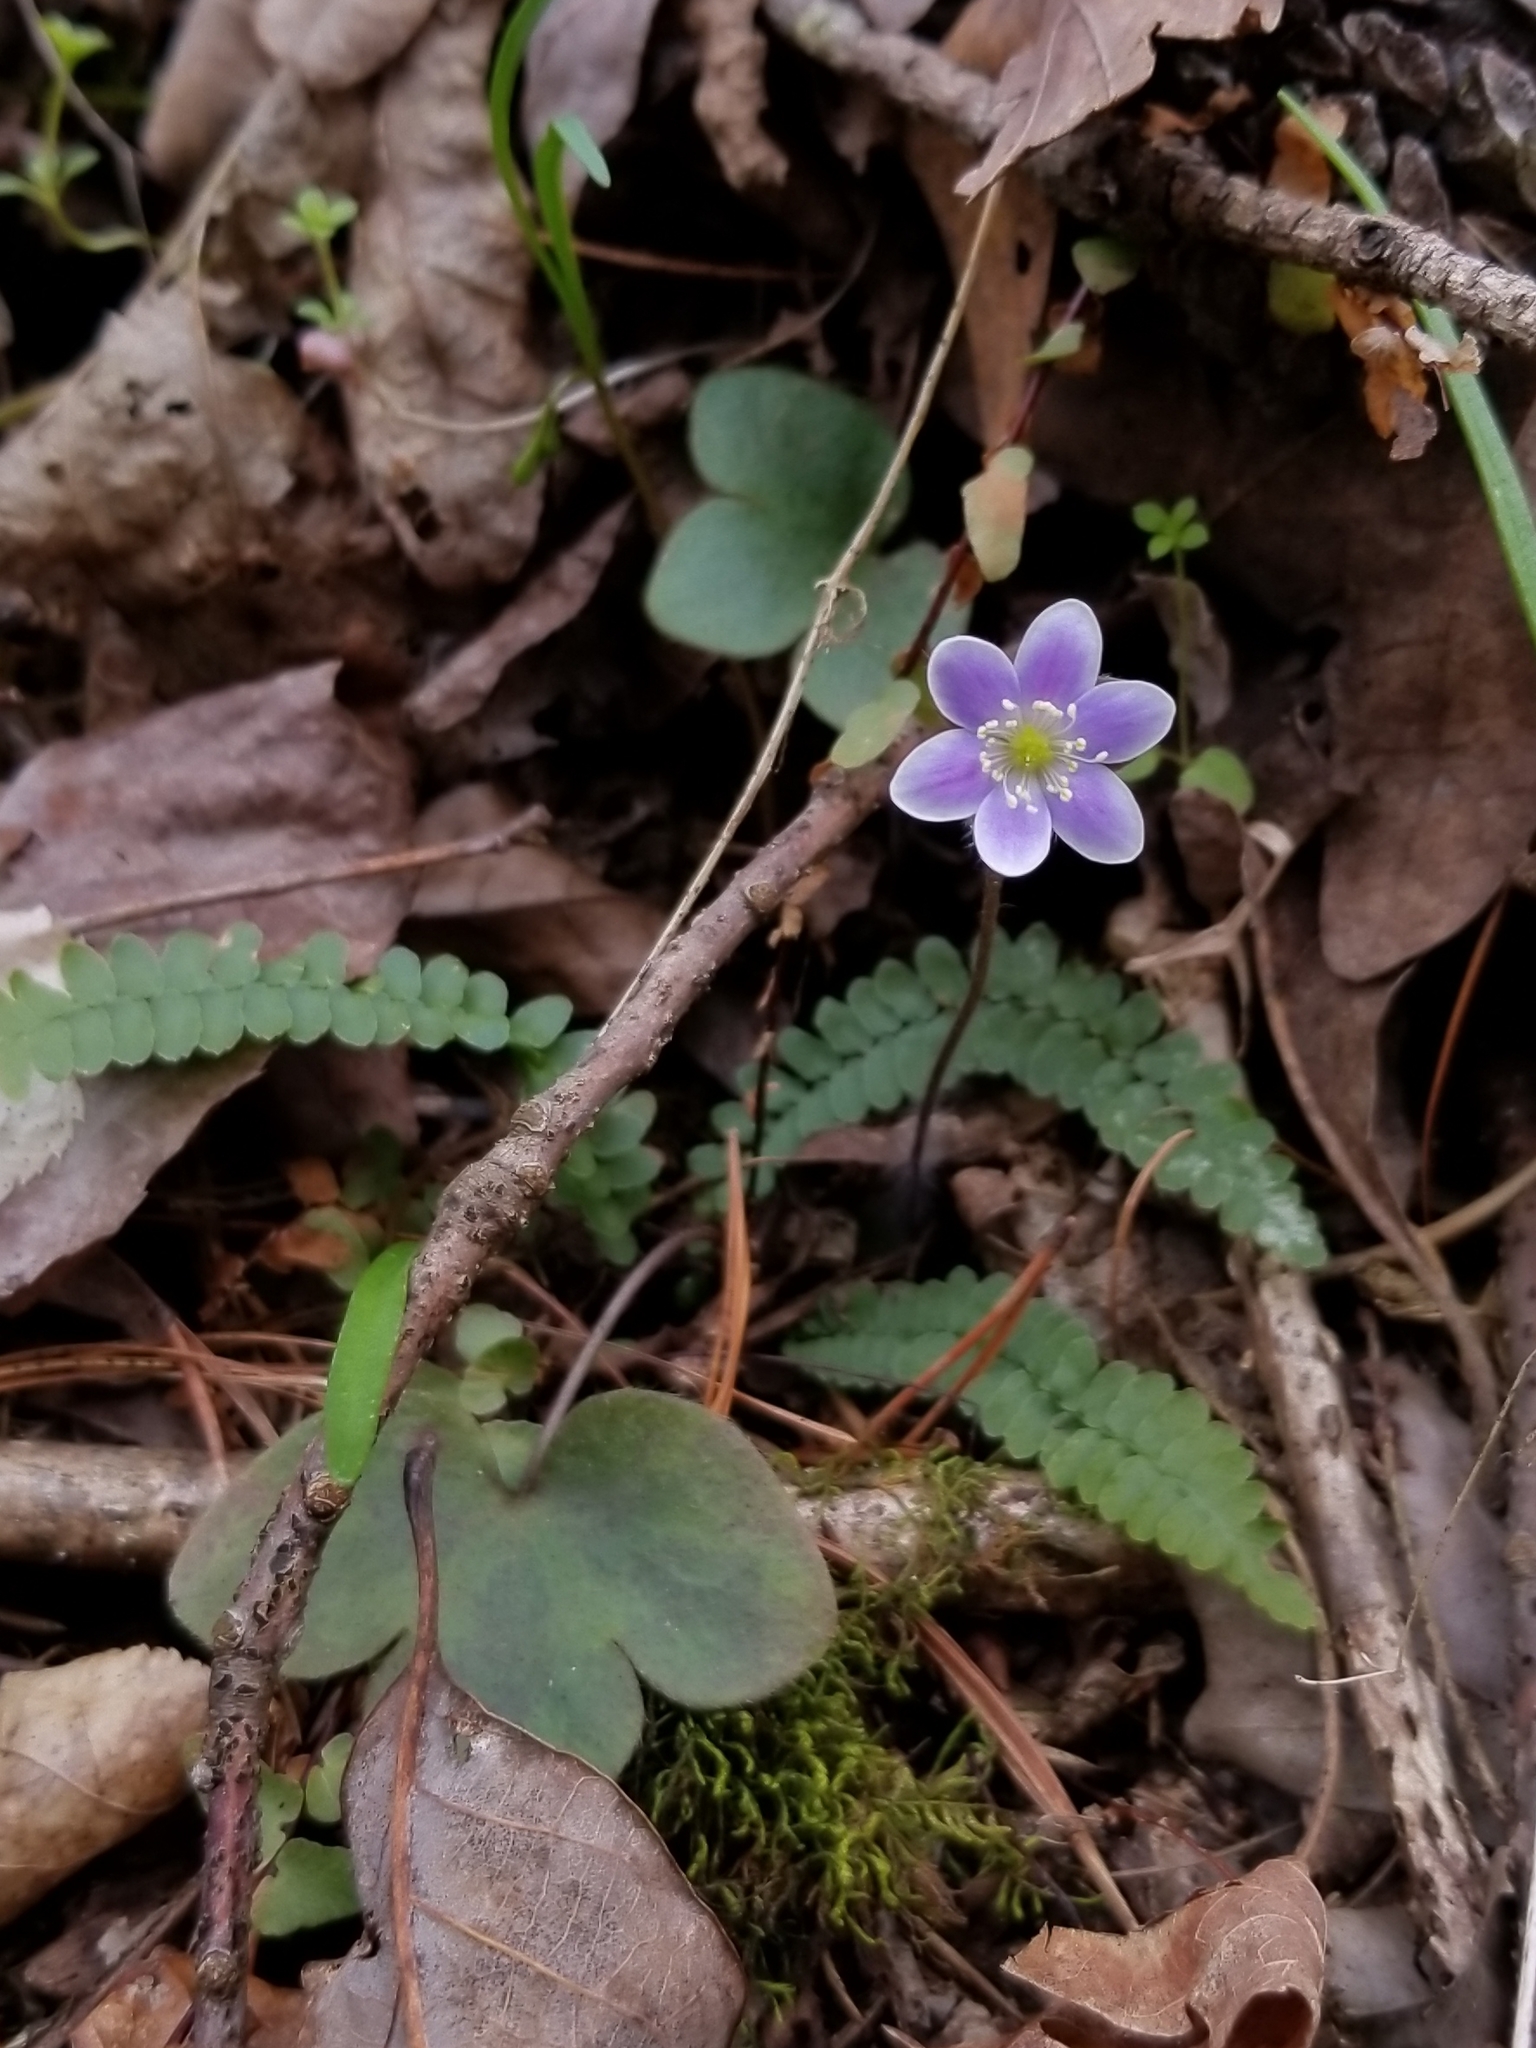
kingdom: Plantae
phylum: Tracheophyta
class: Magnoliopsida
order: Ranunculales
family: Ranunculaceae
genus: Hepatica
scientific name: Hepatica americana
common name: American hepatica
